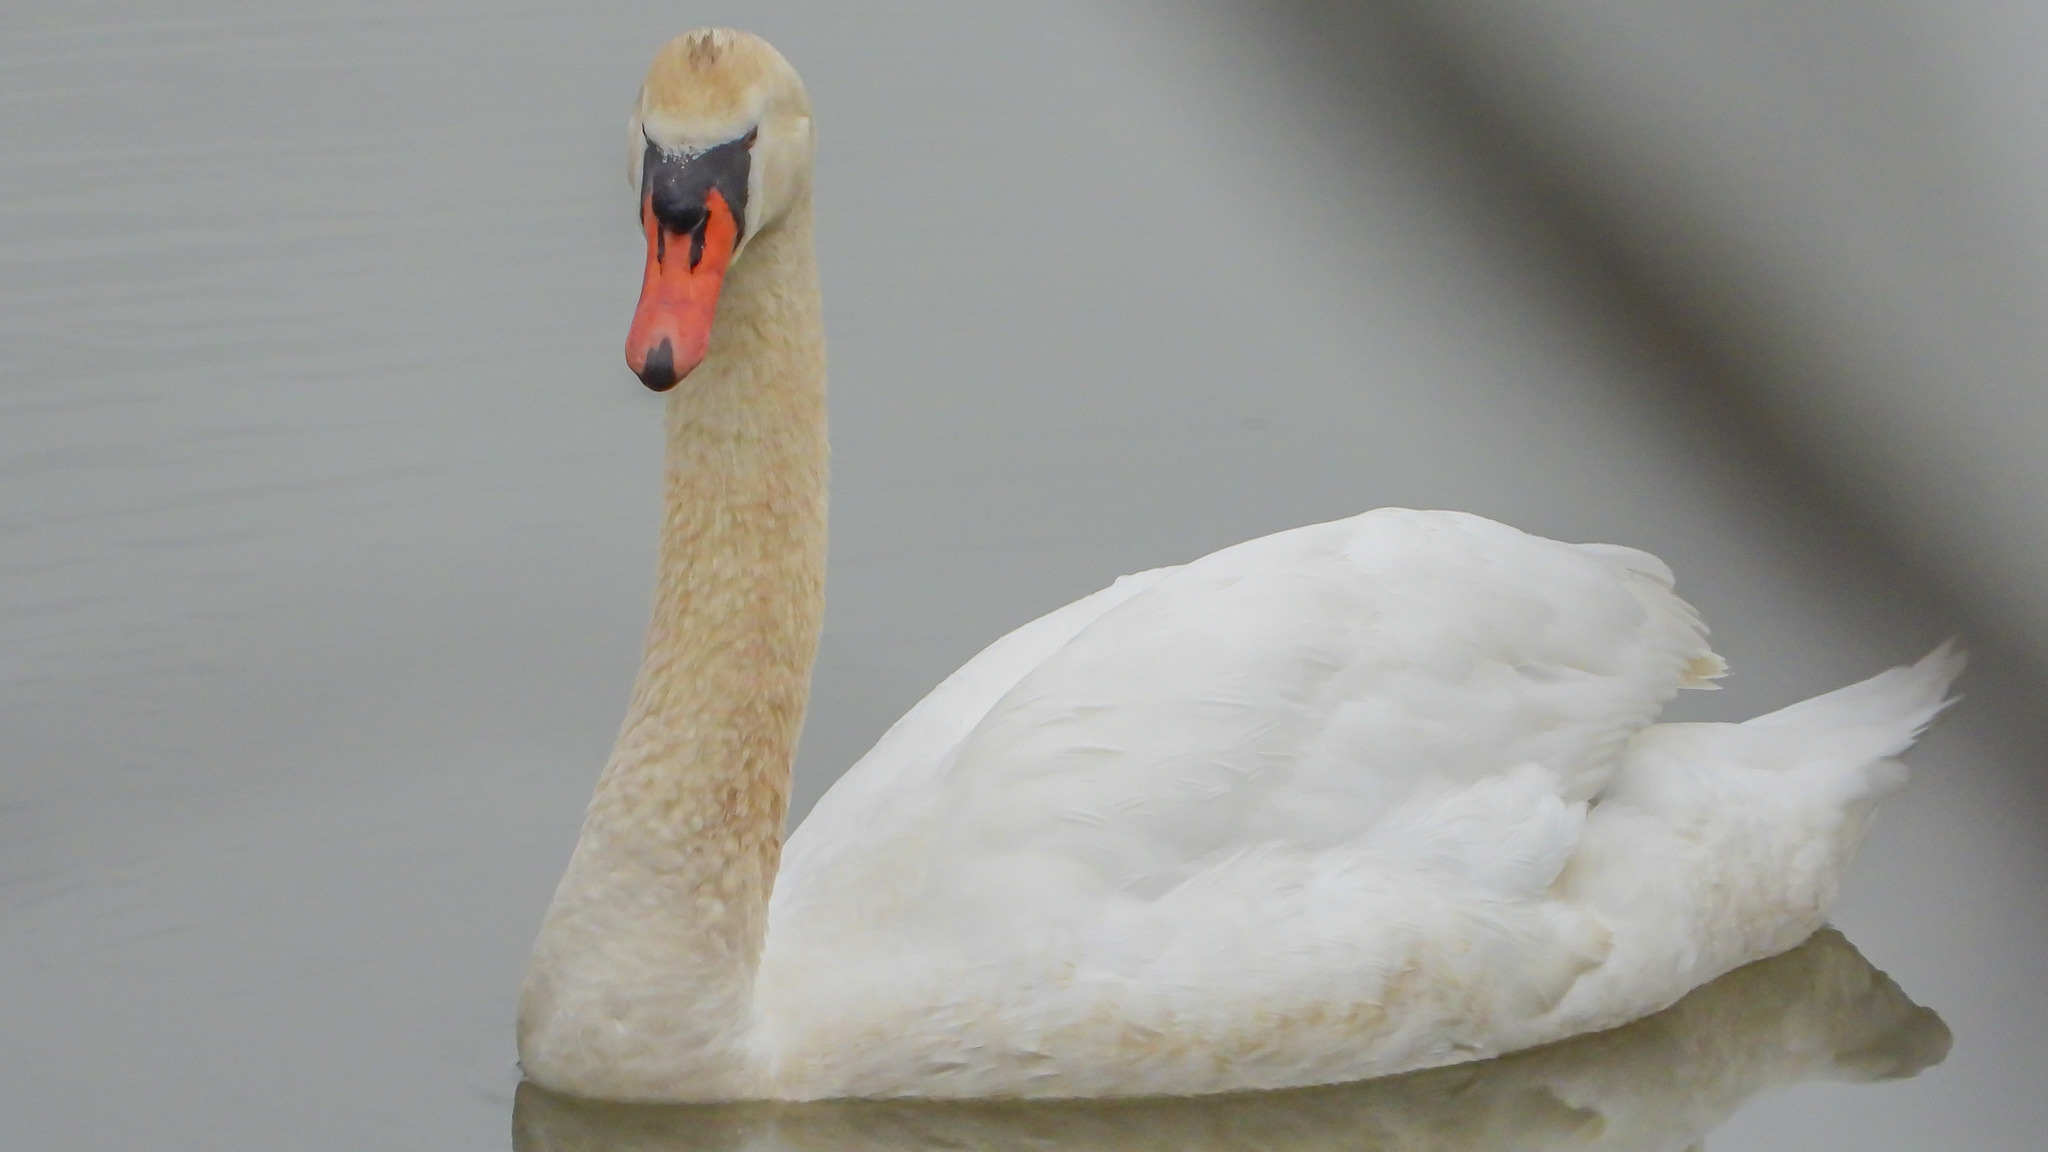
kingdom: Animalia
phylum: Chordata
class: Aves
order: Anseriformes
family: Anatidae
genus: Cygnus
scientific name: Cygnus olor
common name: Mute swan
